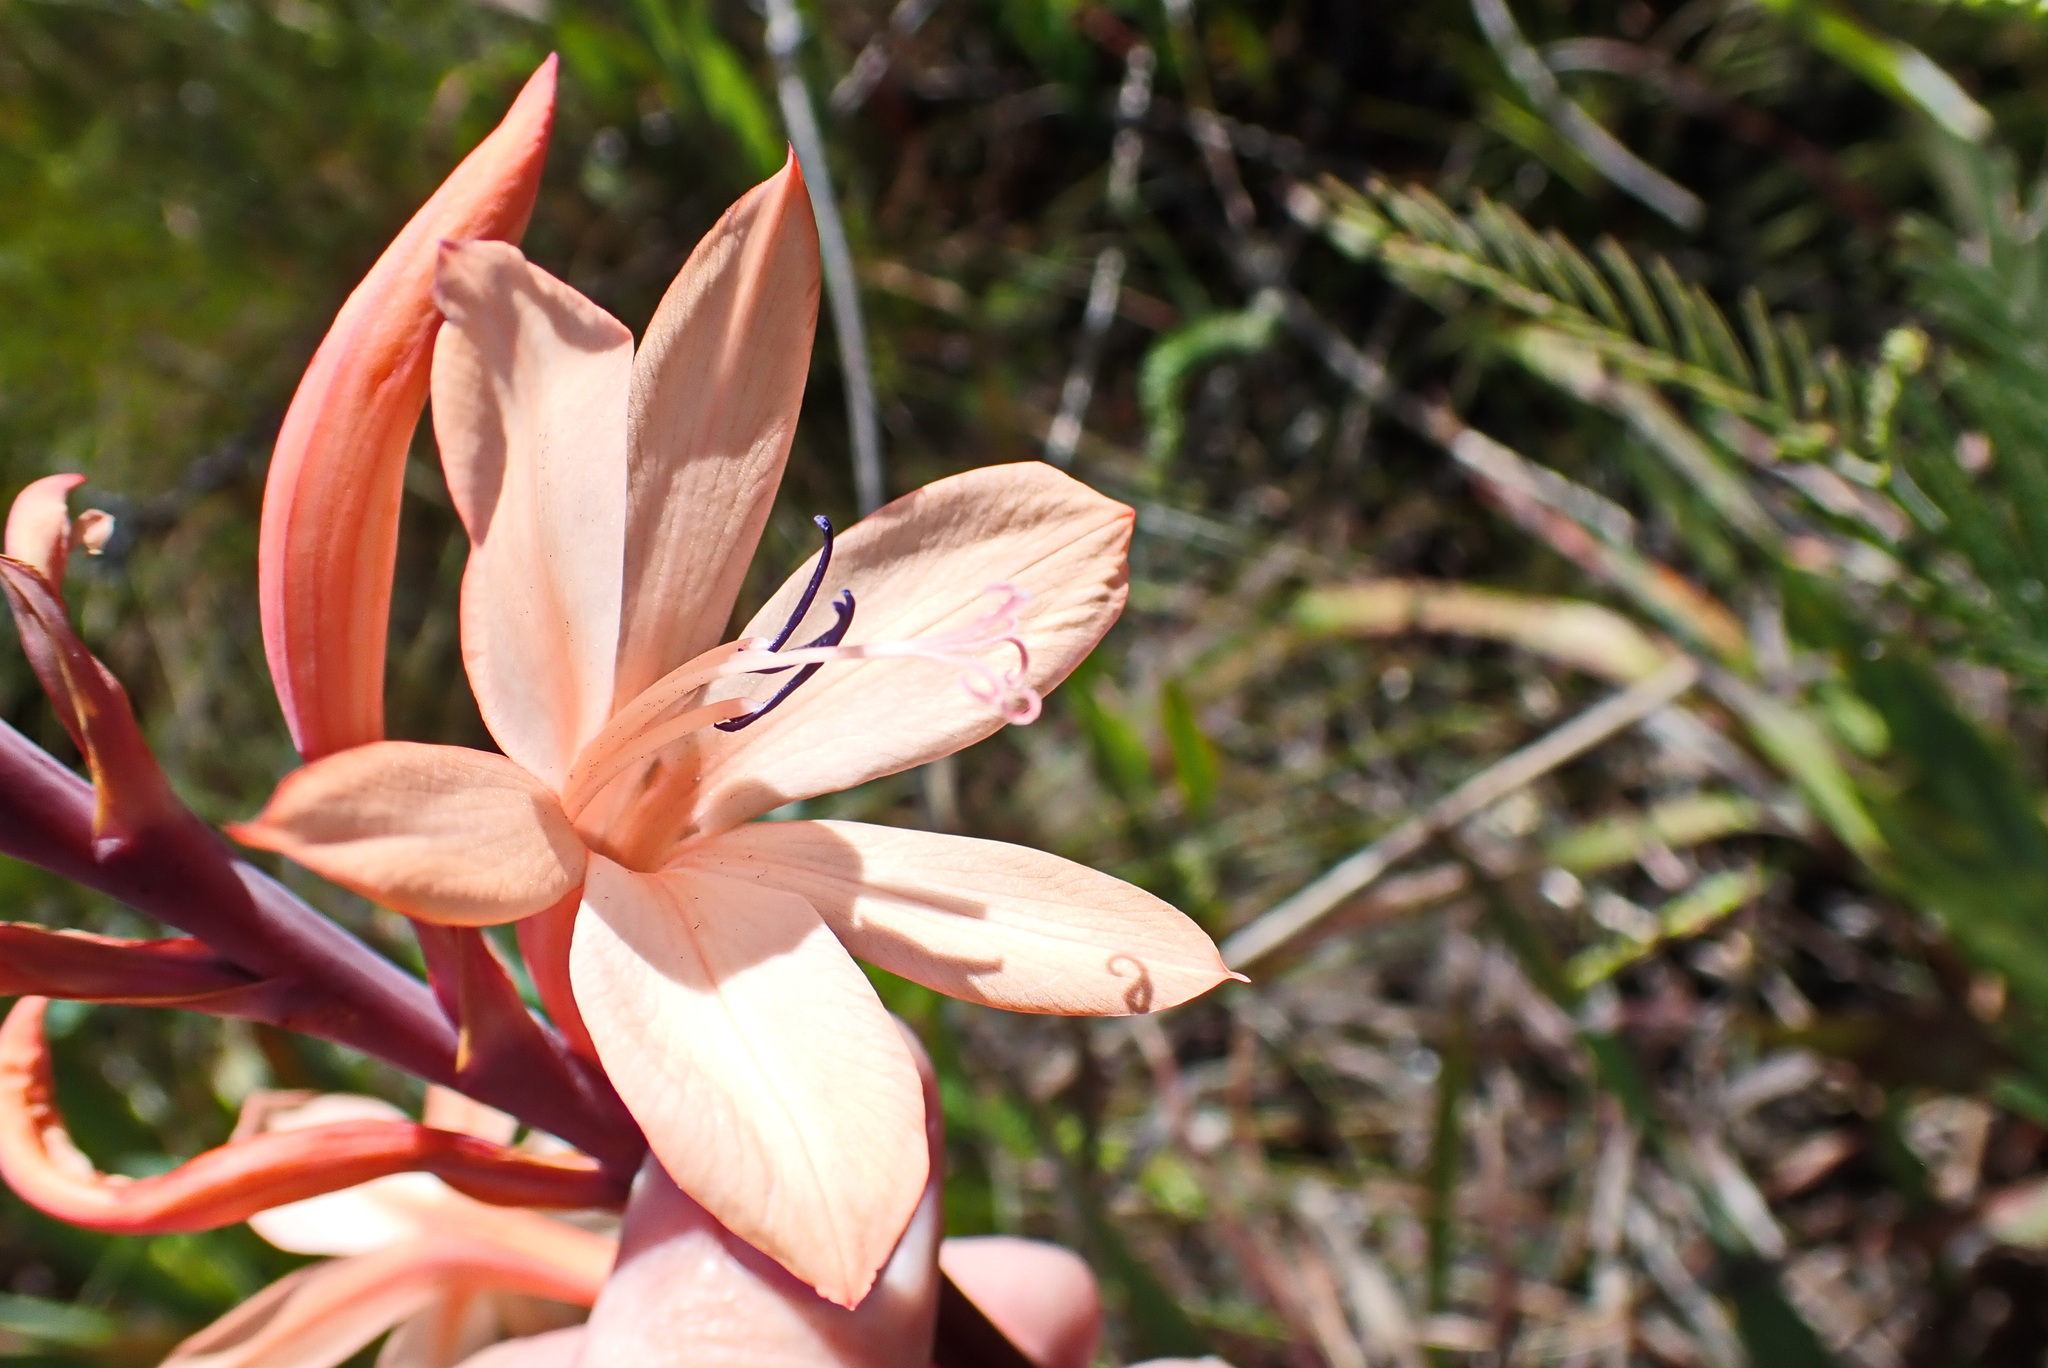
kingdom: Plantae
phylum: Tracheophyta
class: Liliopsida
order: Asparagales
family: Iridaceae
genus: Watsonia
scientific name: Watsonia fourcadei
